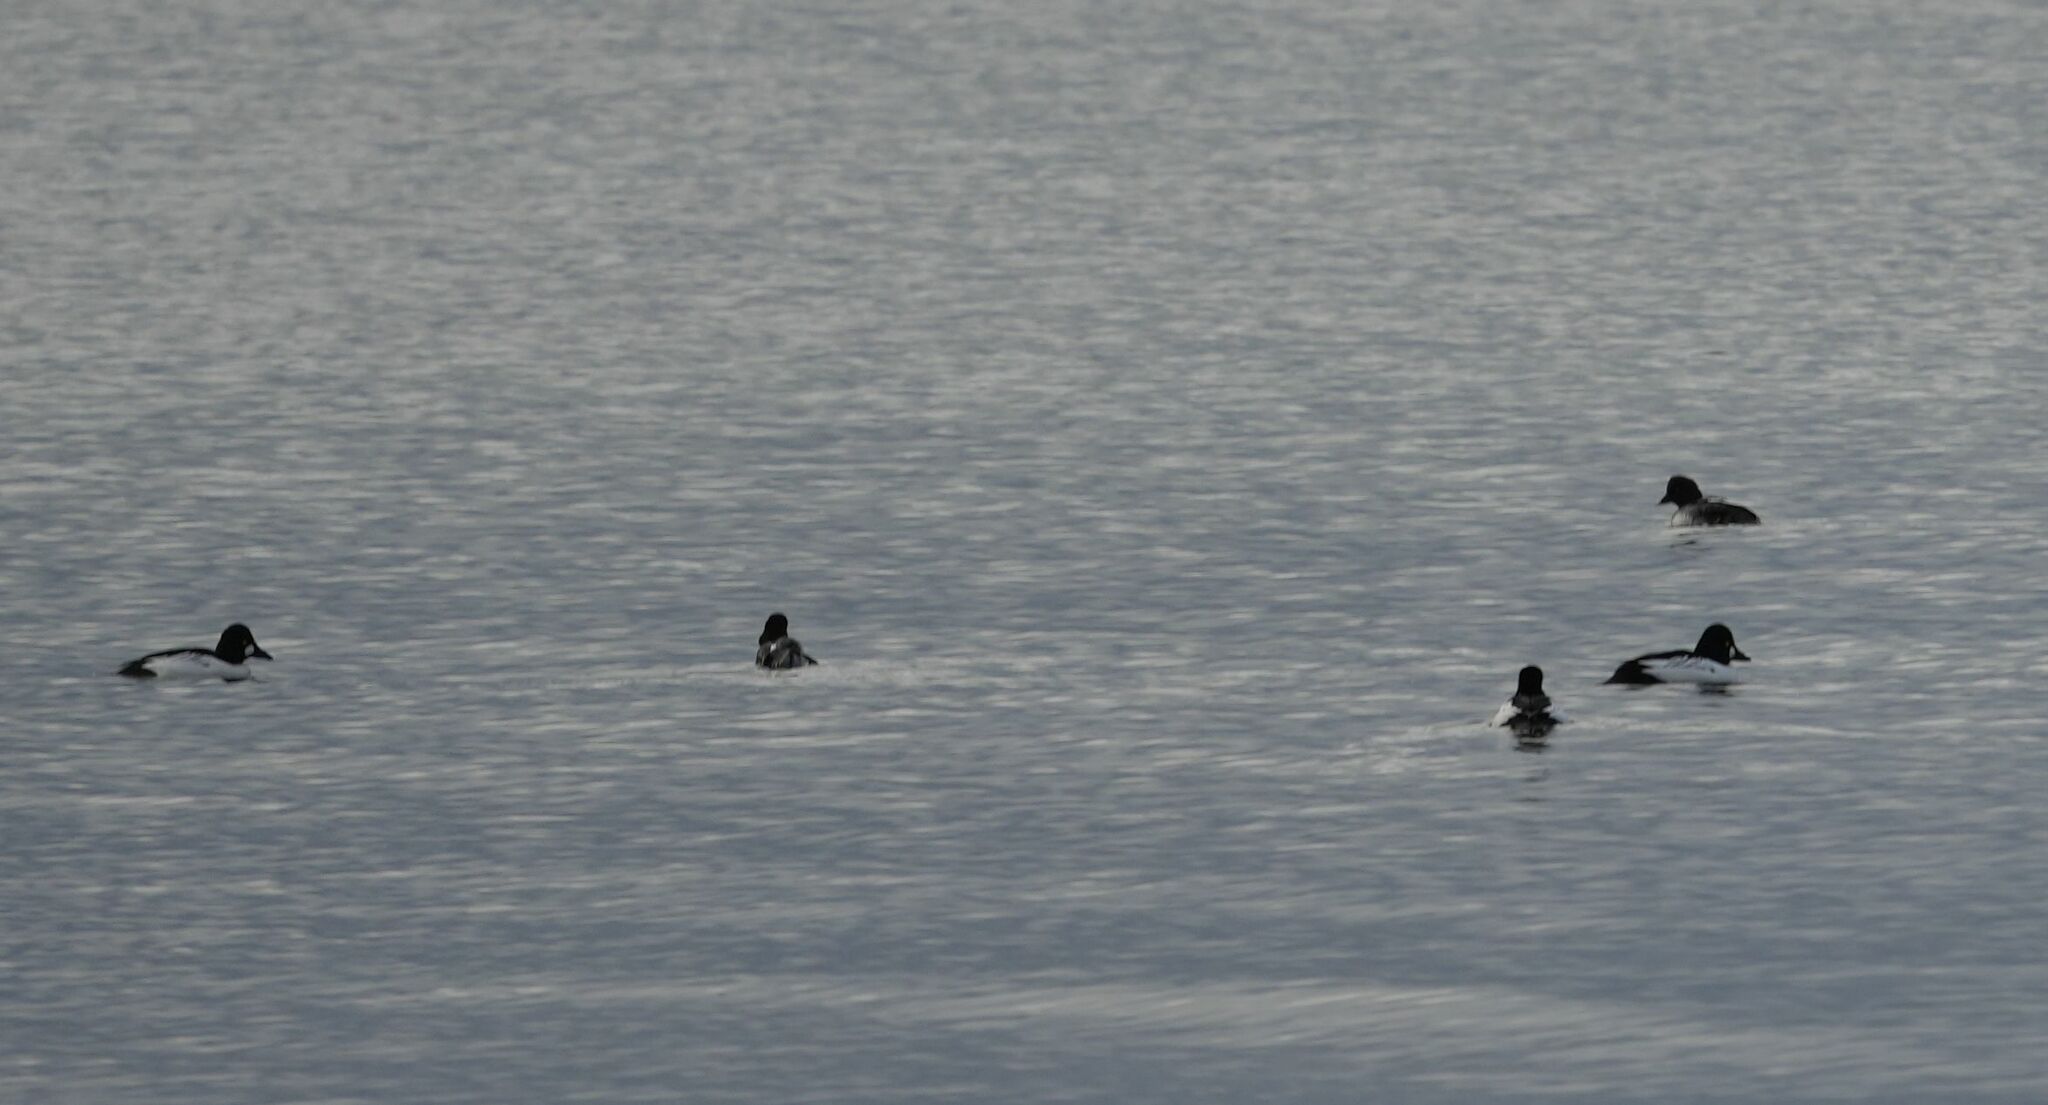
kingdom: Animalia
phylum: Chordata
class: Aves
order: Anseriformes
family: Anatidae
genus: Bucephala
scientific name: Bucephala clangula
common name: Common goldeneye
